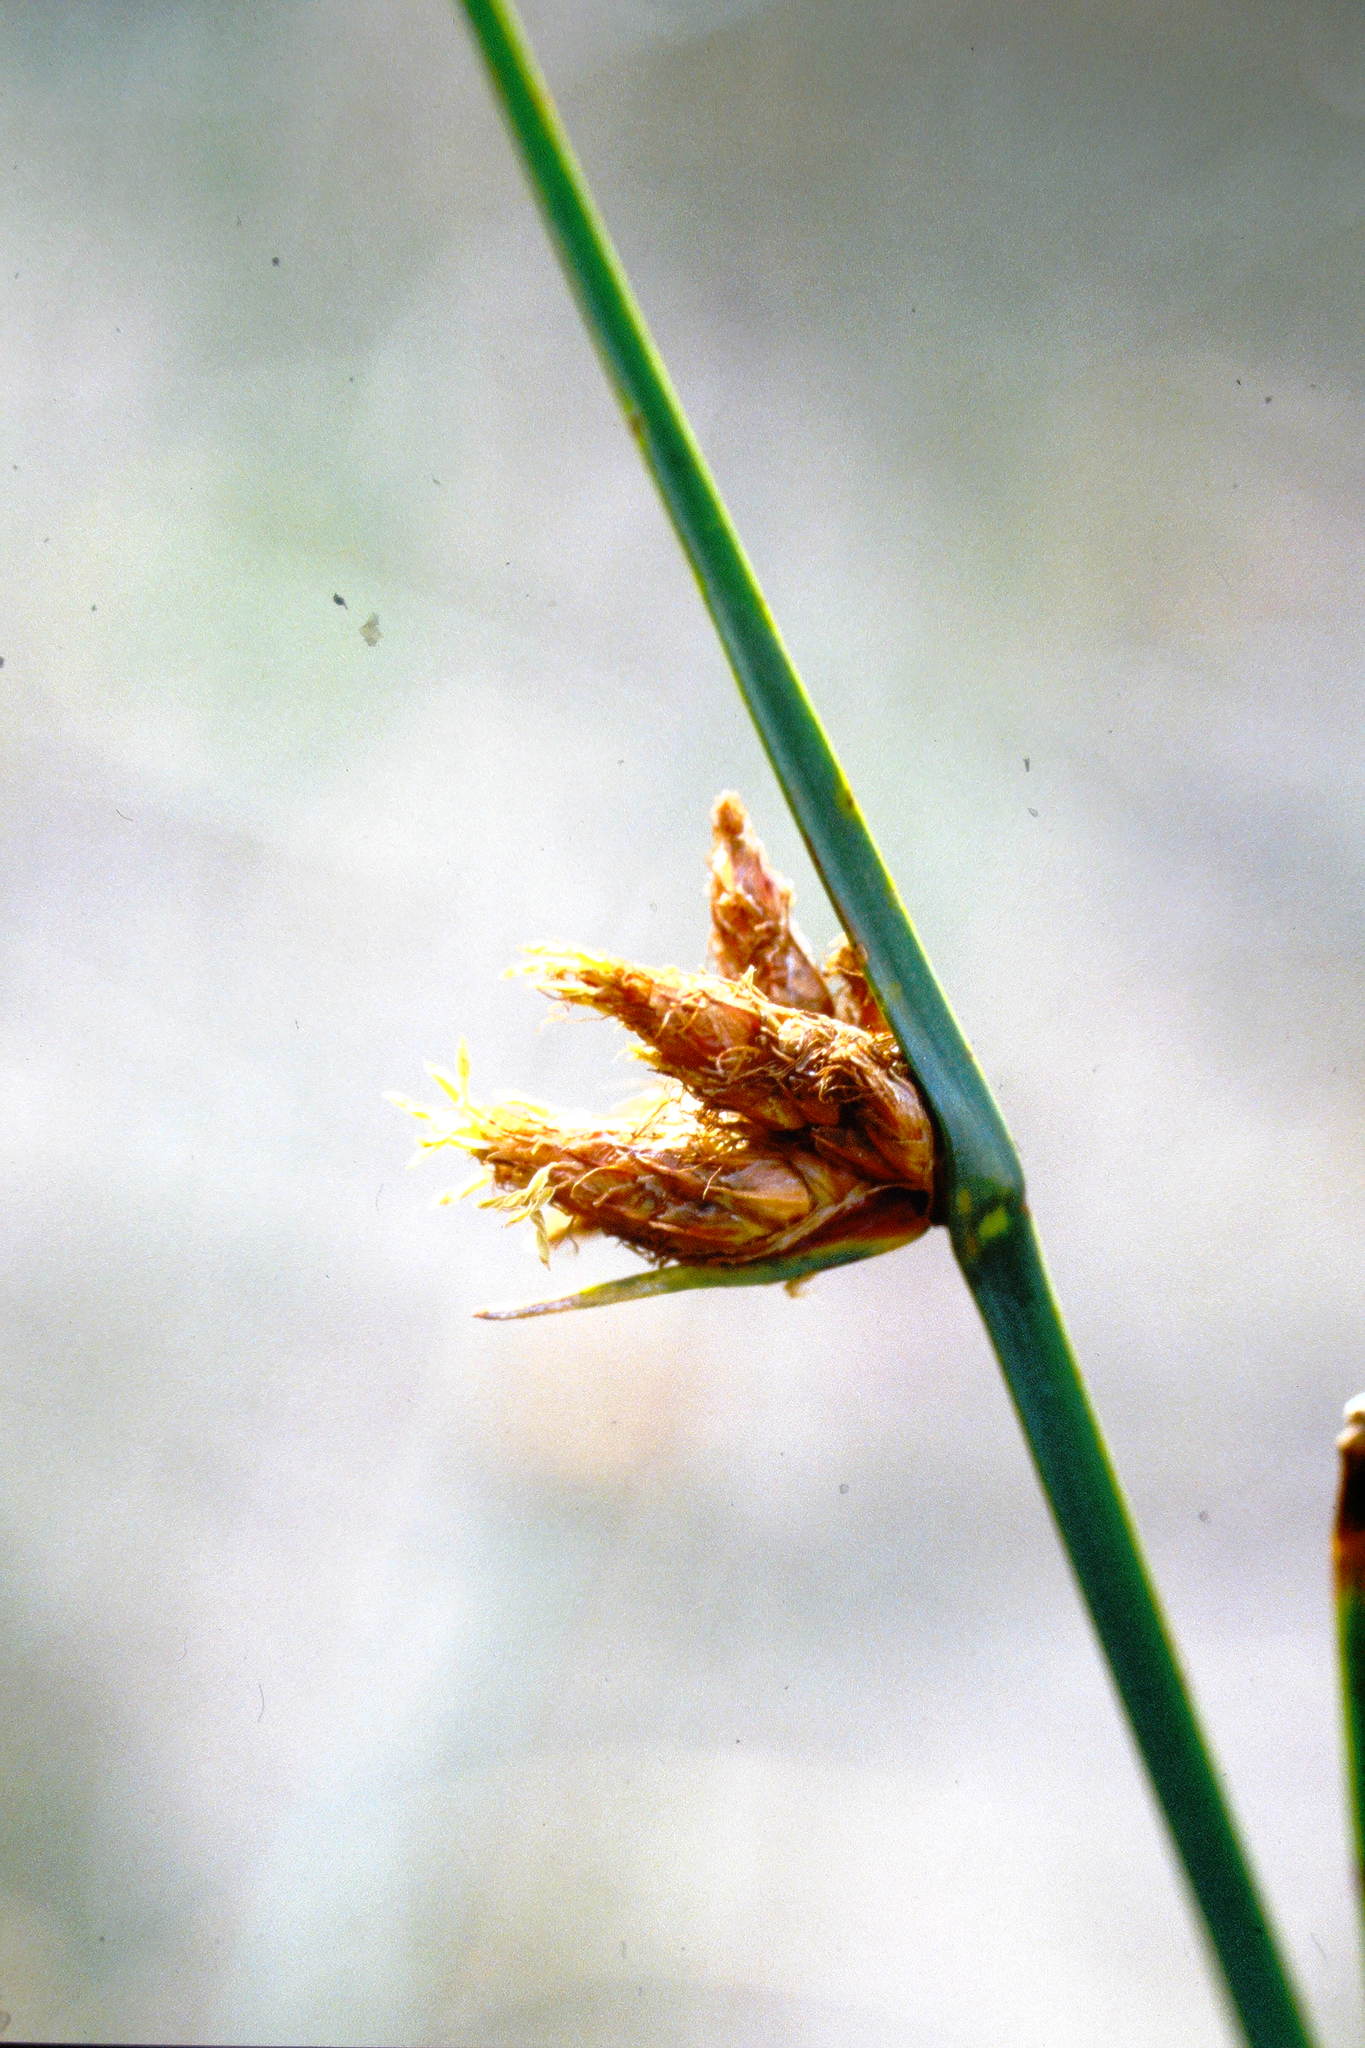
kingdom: Plantae
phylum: Tracheophyta
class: Liliopsida
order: Poales
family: Cyperaceae
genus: Schoenoplectus
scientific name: Schoenoplectus torreyi
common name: Torrey's bulrush
